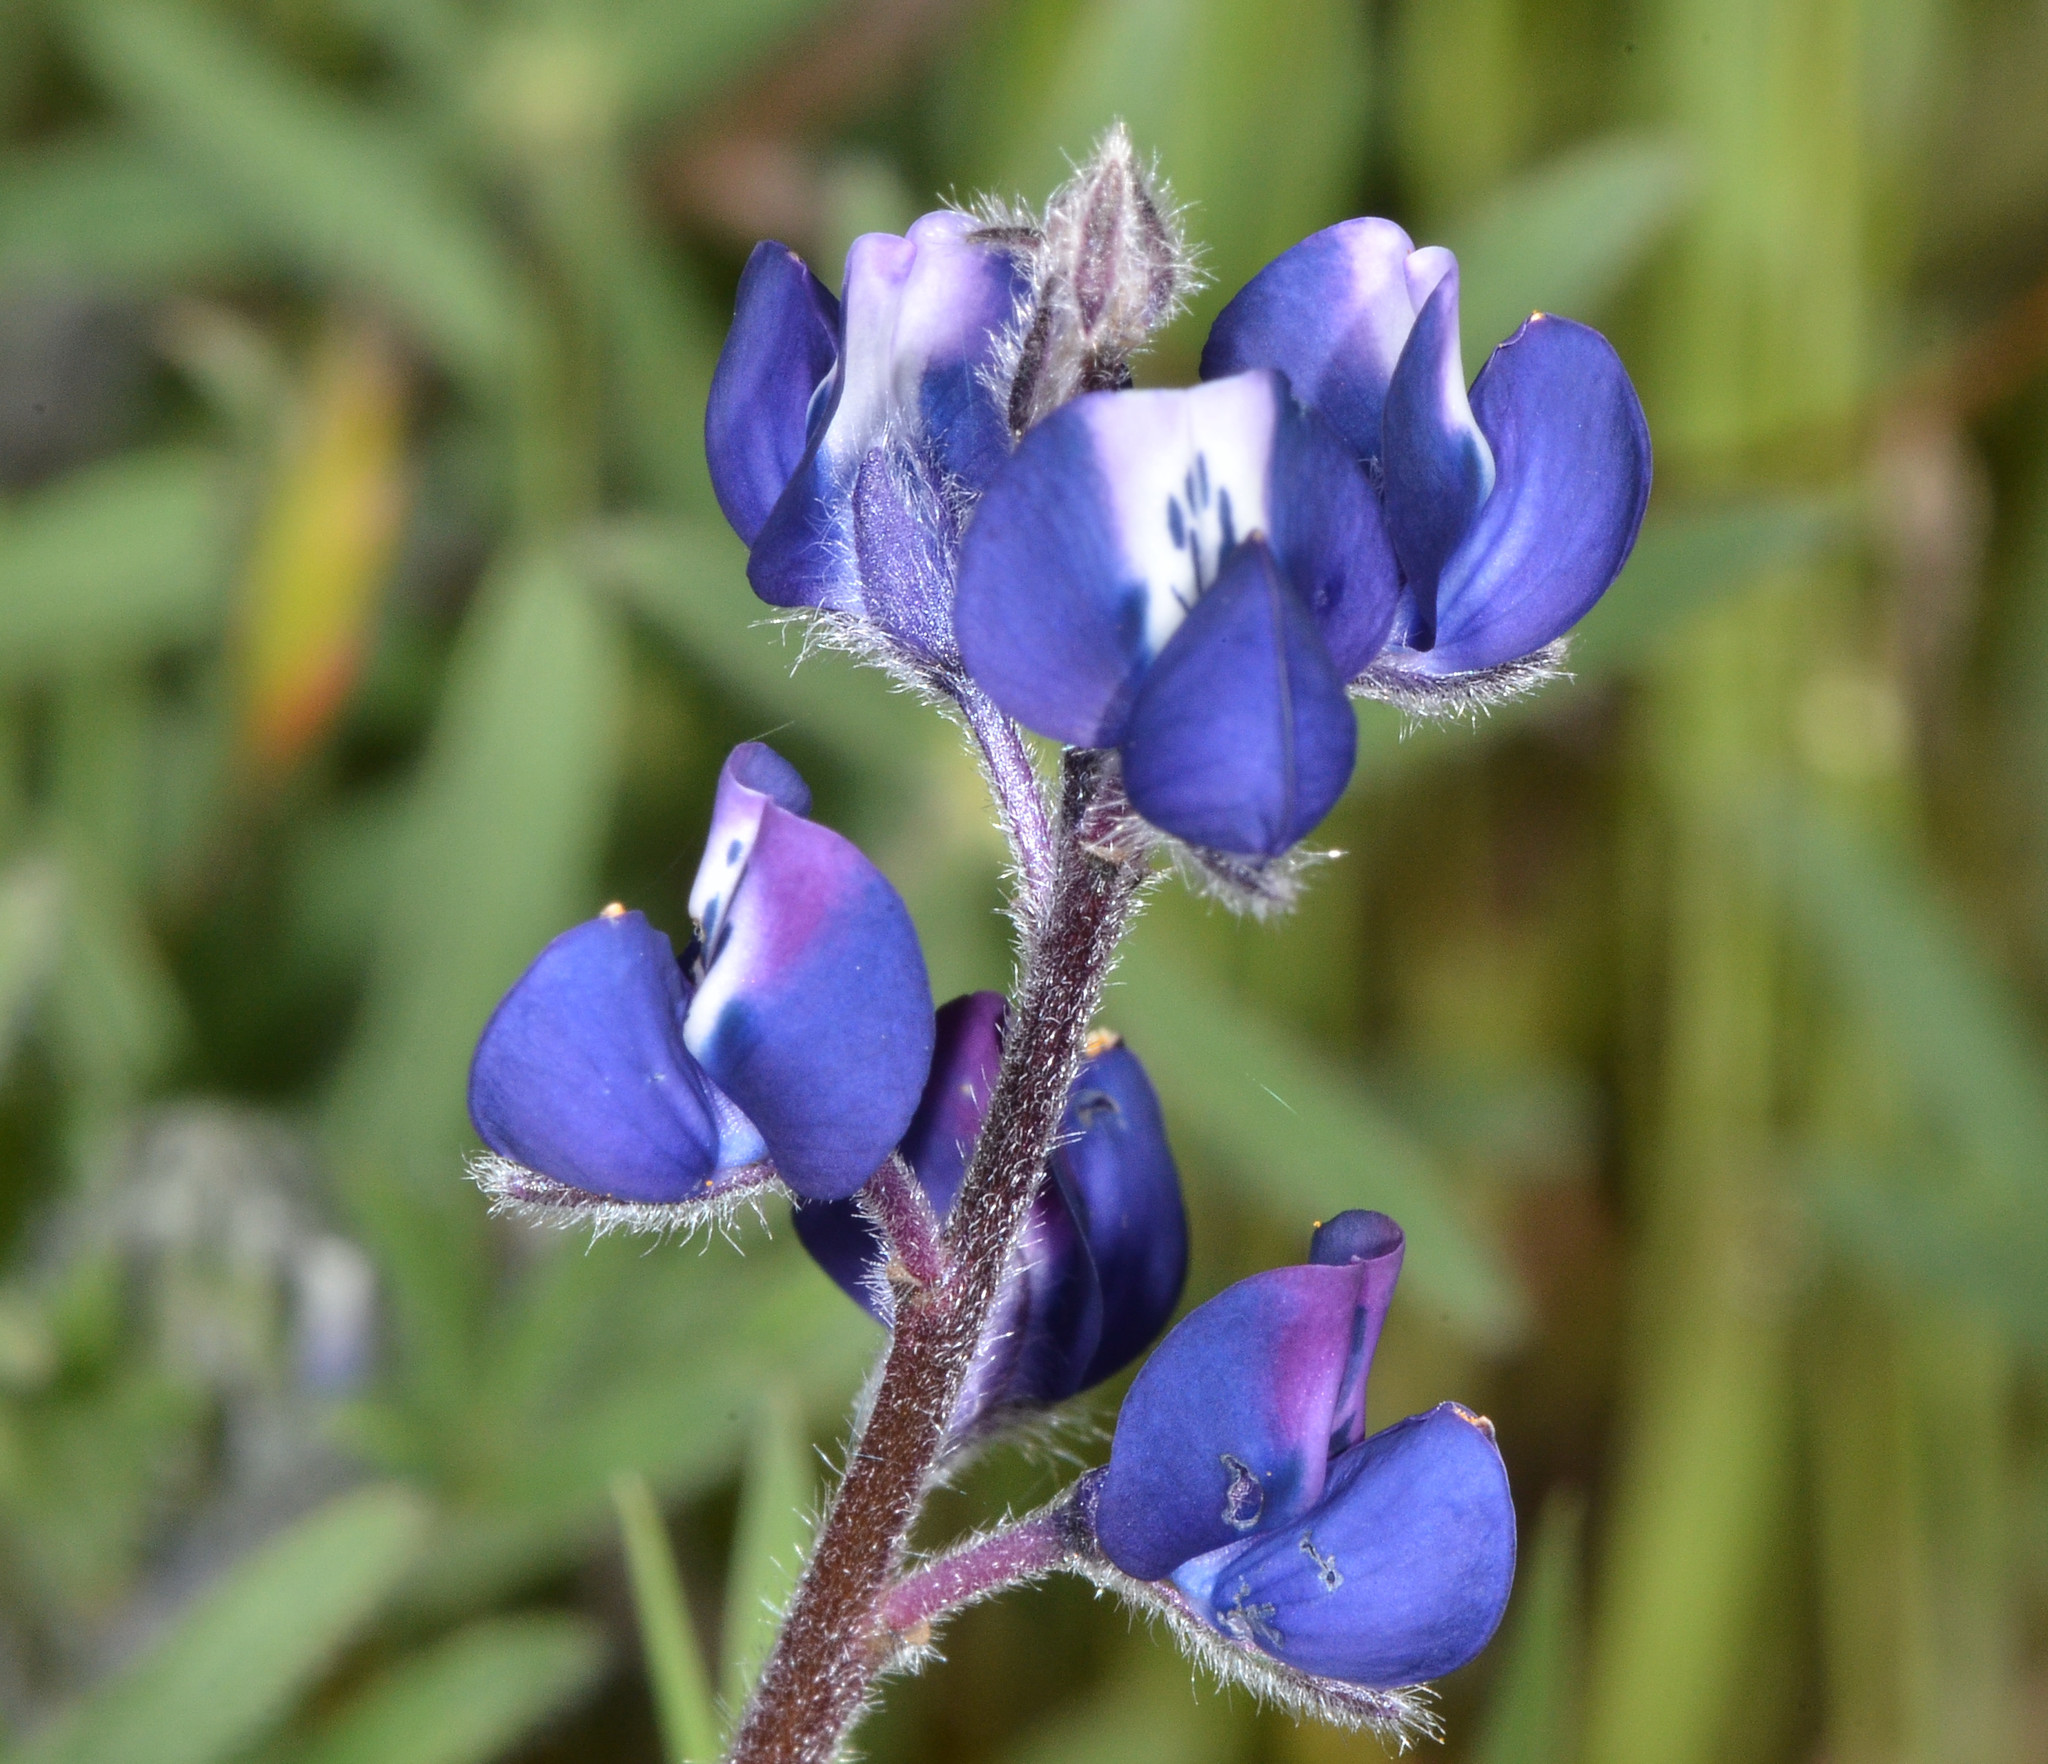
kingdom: Plantae
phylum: Tracheophyta
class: Magnoliopsida
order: Fabales
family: Fabaceae
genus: Lupinus
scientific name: Lupinus bicolor
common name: Miniature lupine
